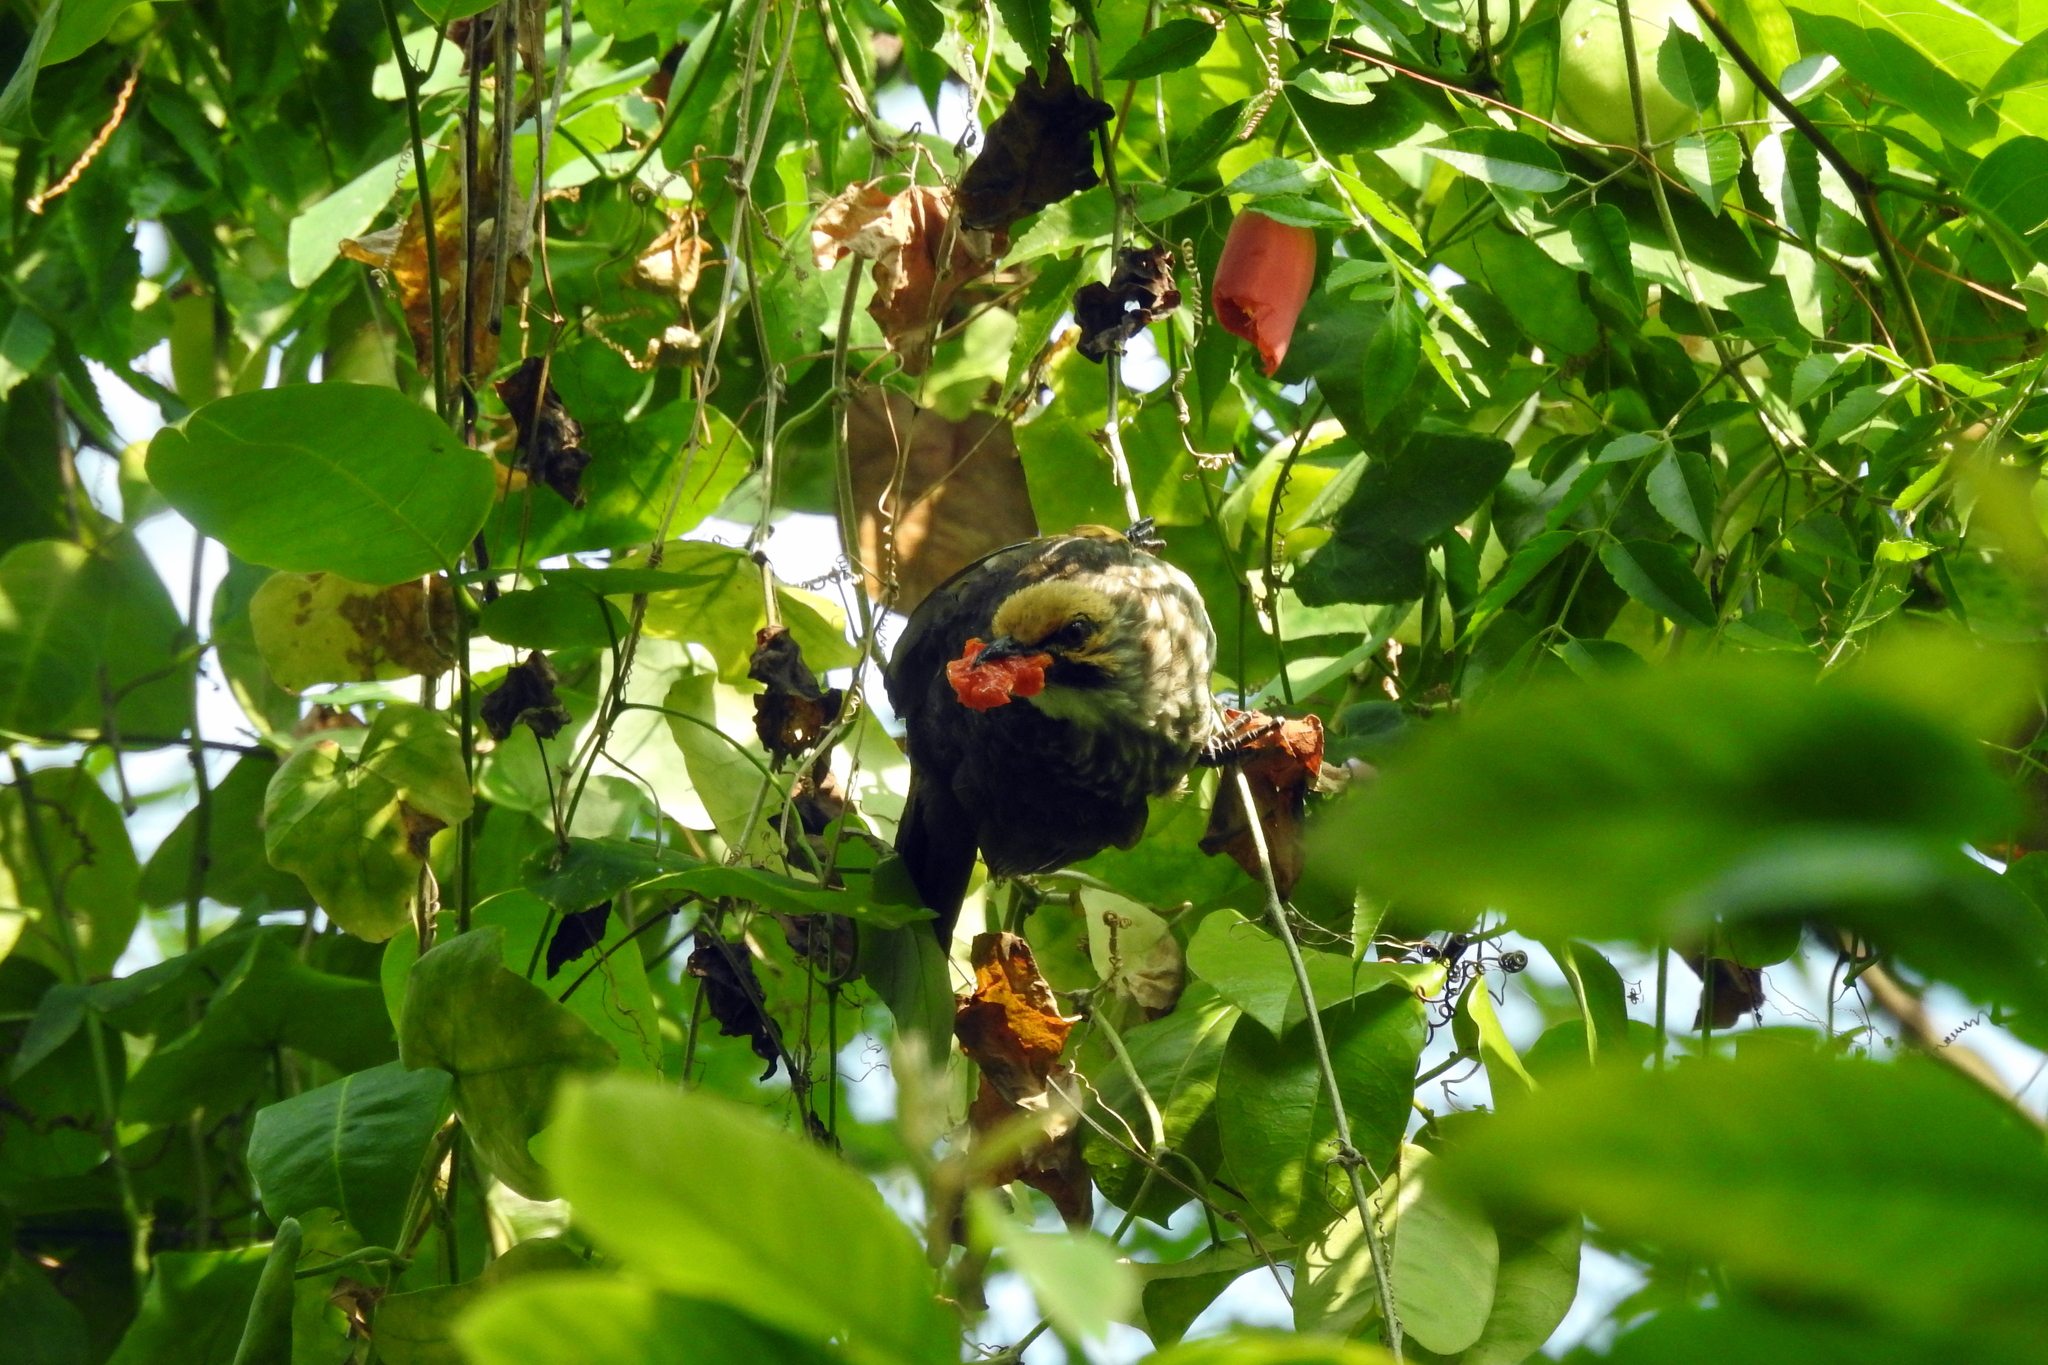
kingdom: Animalia
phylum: Chordata
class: Aves
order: Passeriformes
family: Pycnonotidae
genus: Pycnonotus
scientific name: Pycnonotus zeylanicus
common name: Straw-headed bulbul
